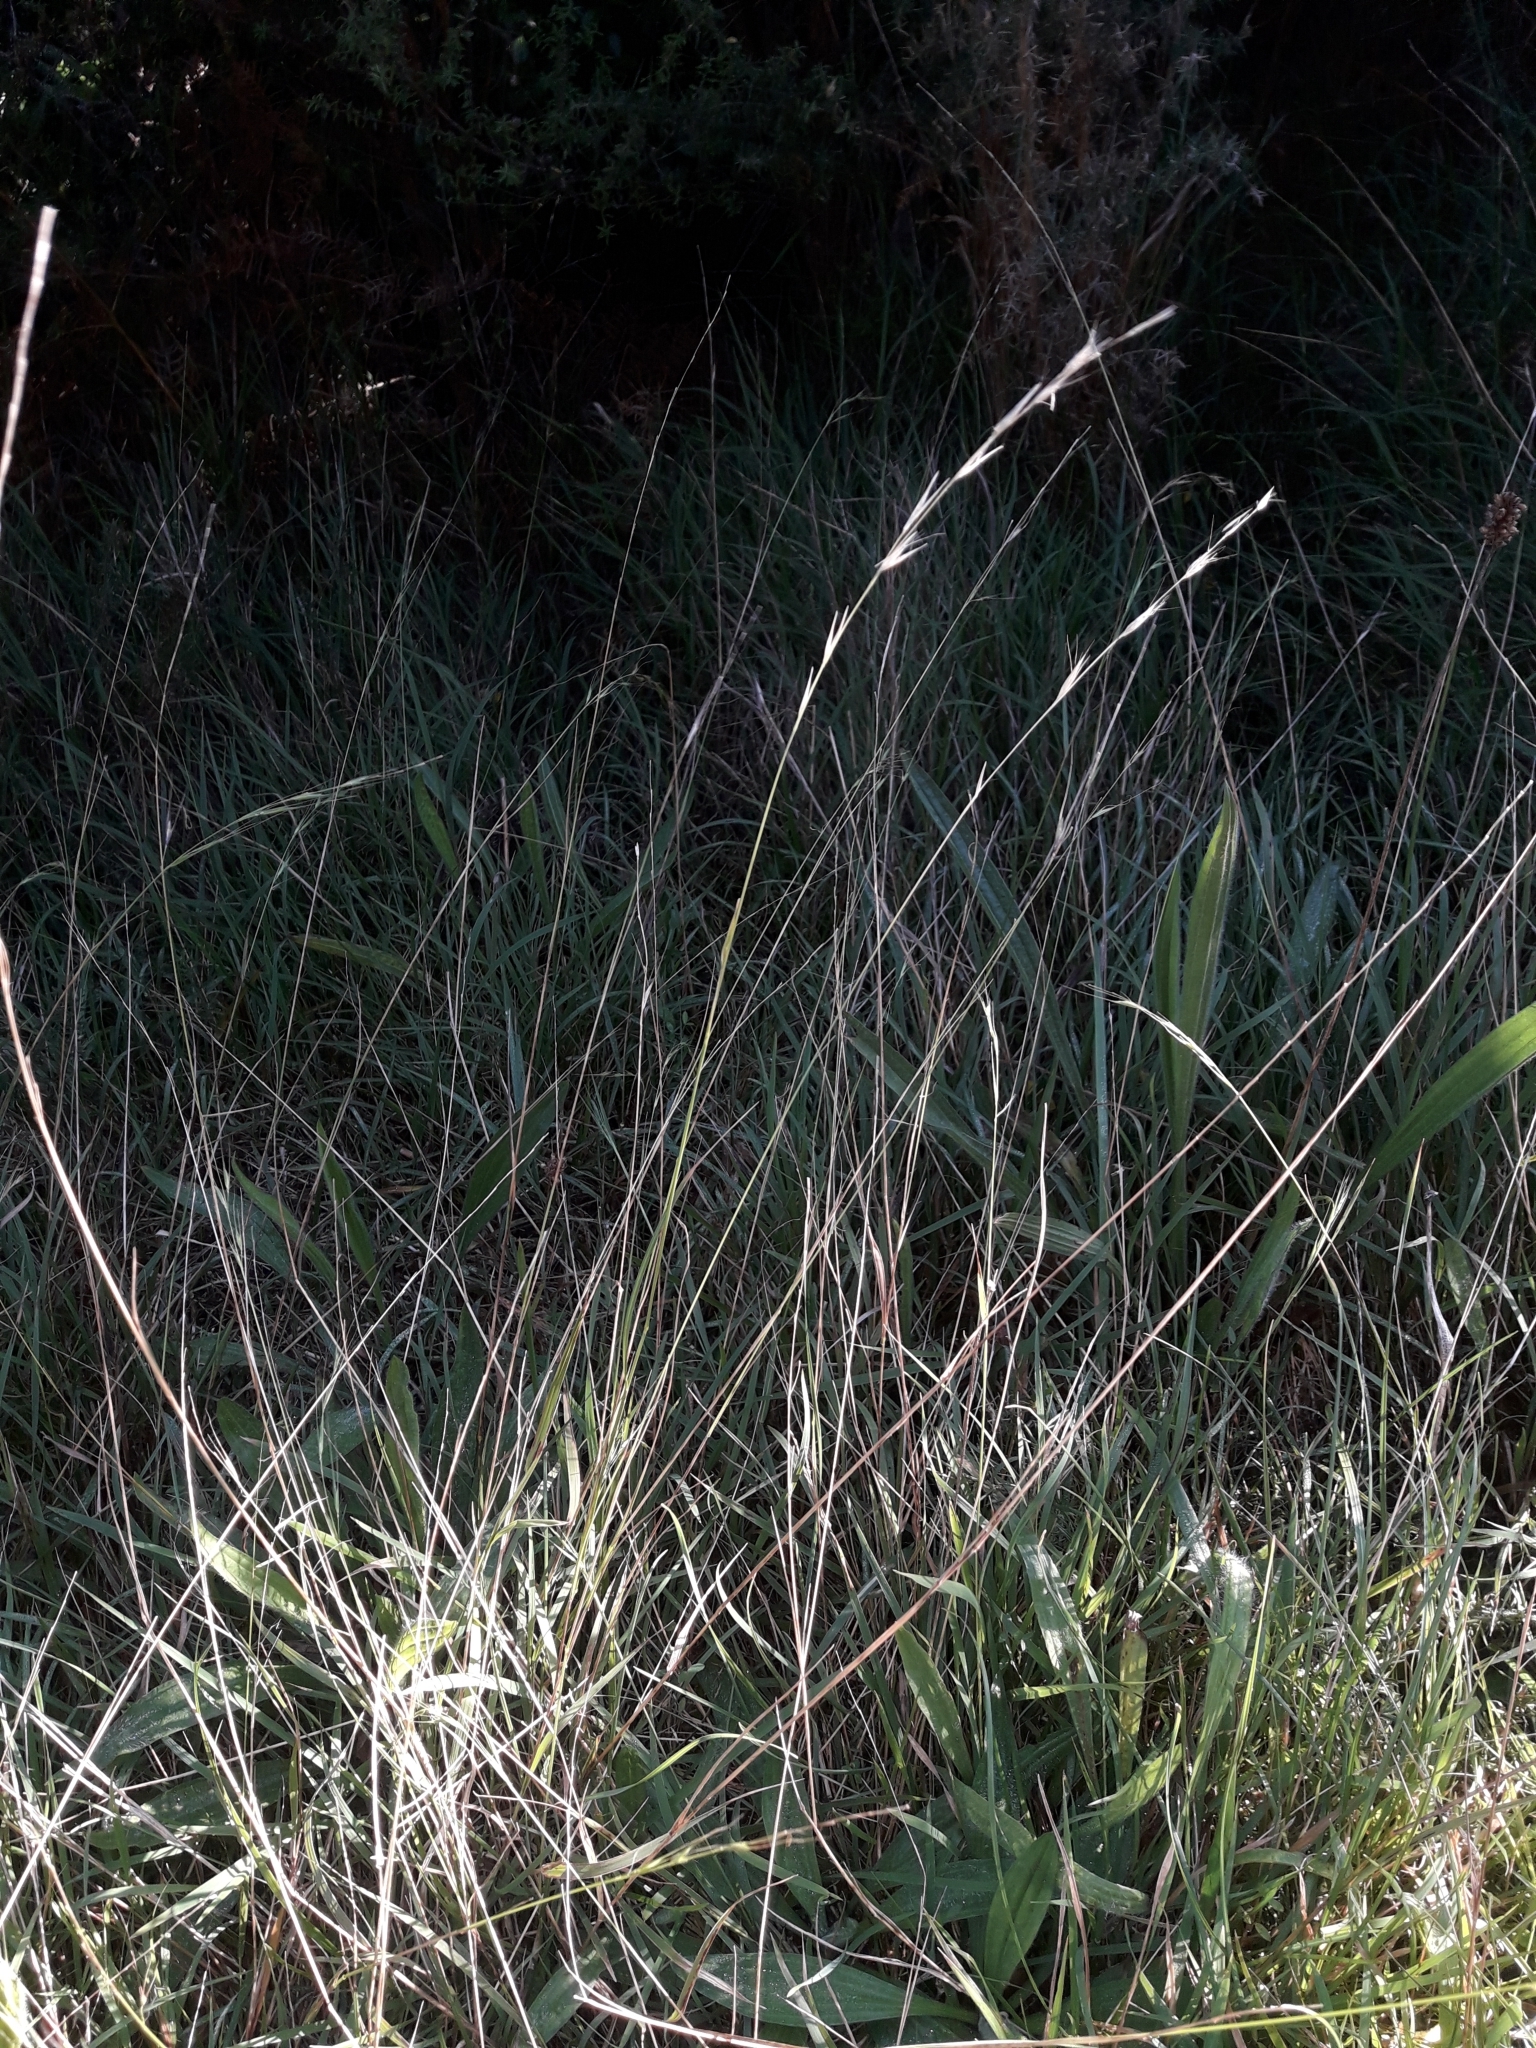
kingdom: Plantae
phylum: Tracheophyta
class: Liliopsida
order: Poales
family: Poaceae
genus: Microlaena
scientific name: Microlaena stipoides
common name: Meadow ricegrass
